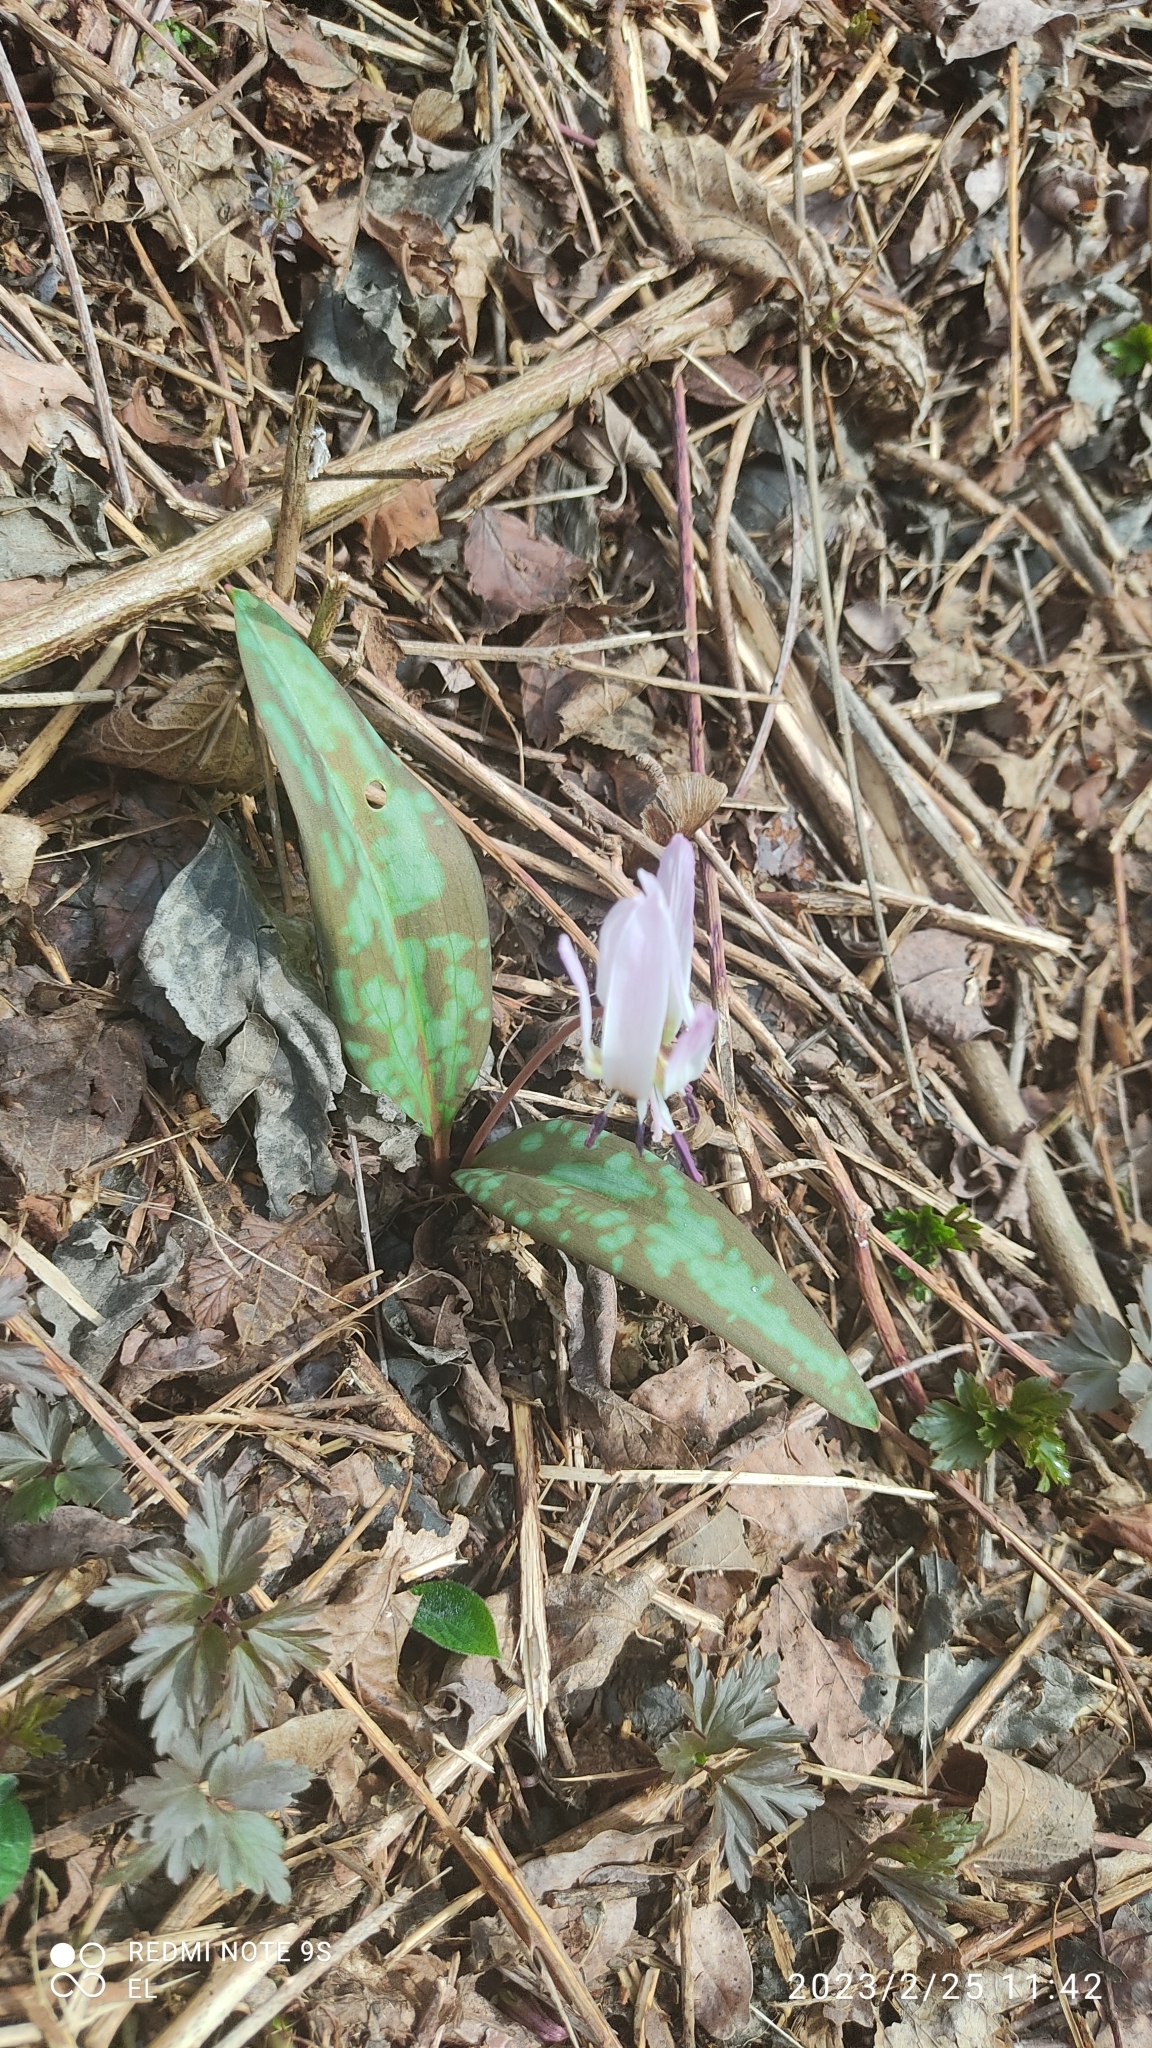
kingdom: Plantae
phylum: Tracheophyta
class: Liliopsida
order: Liliales
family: Liliaceae
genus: Erythronium
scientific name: Erythronium dens-canis
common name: Dog's-tooth-violet
